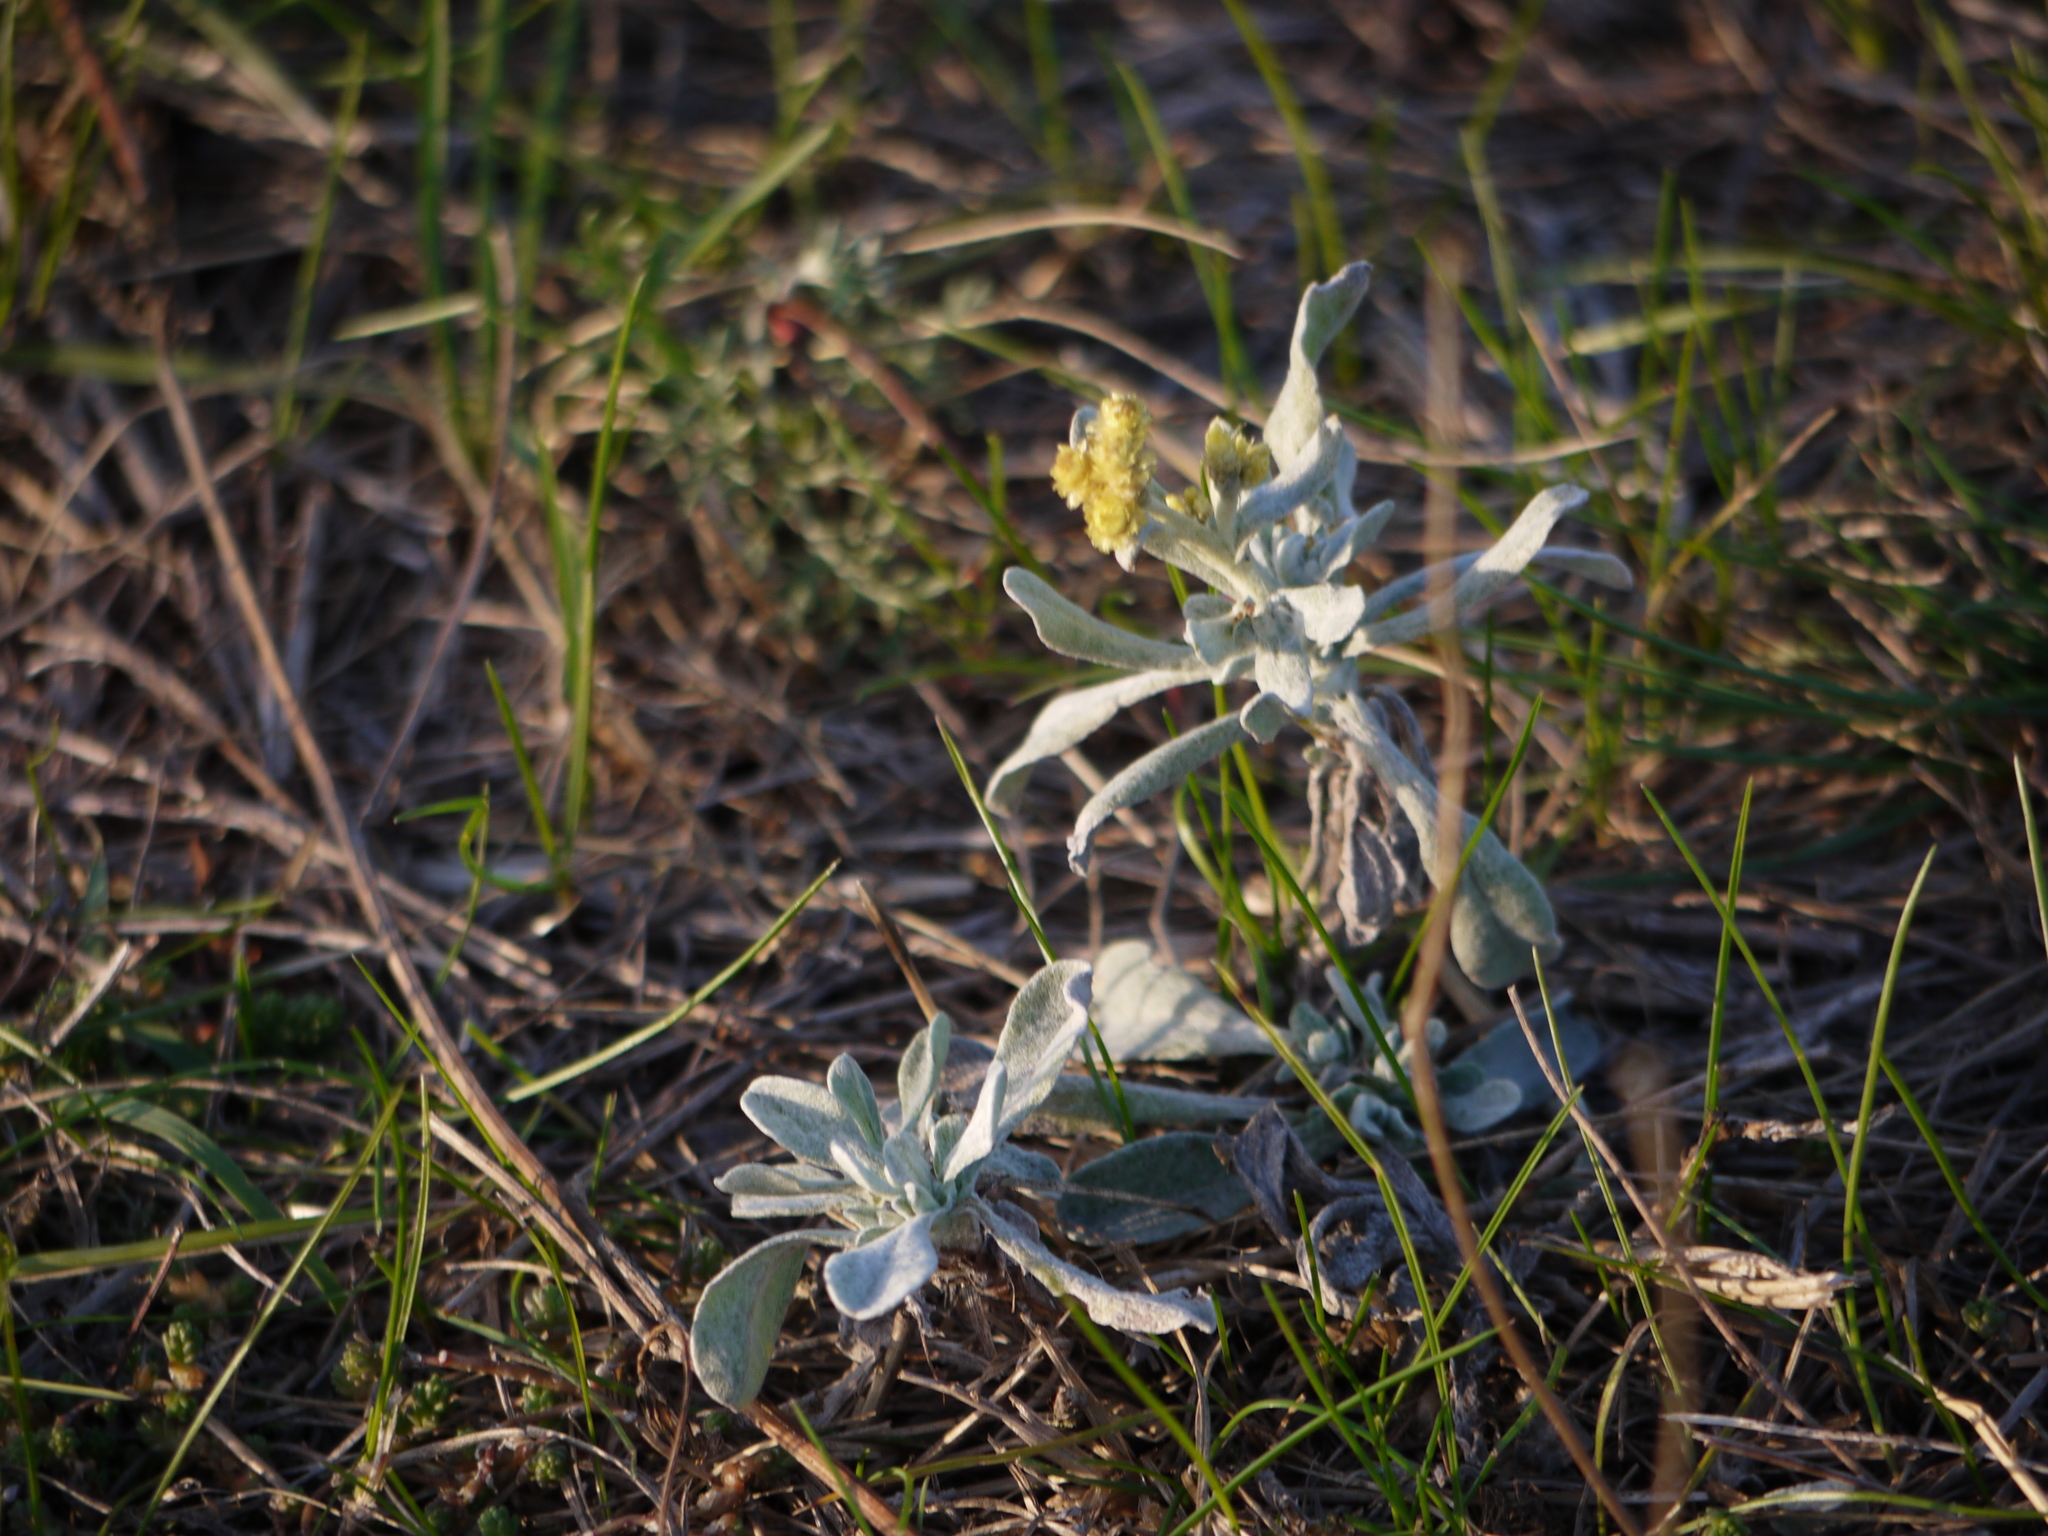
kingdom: Plantae
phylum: Tracheophyta
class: Magnoliopsida
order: Asterales
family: Asteraceae
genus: Helichrysum
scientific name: Helichrysum arenarium
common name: Strawflower
